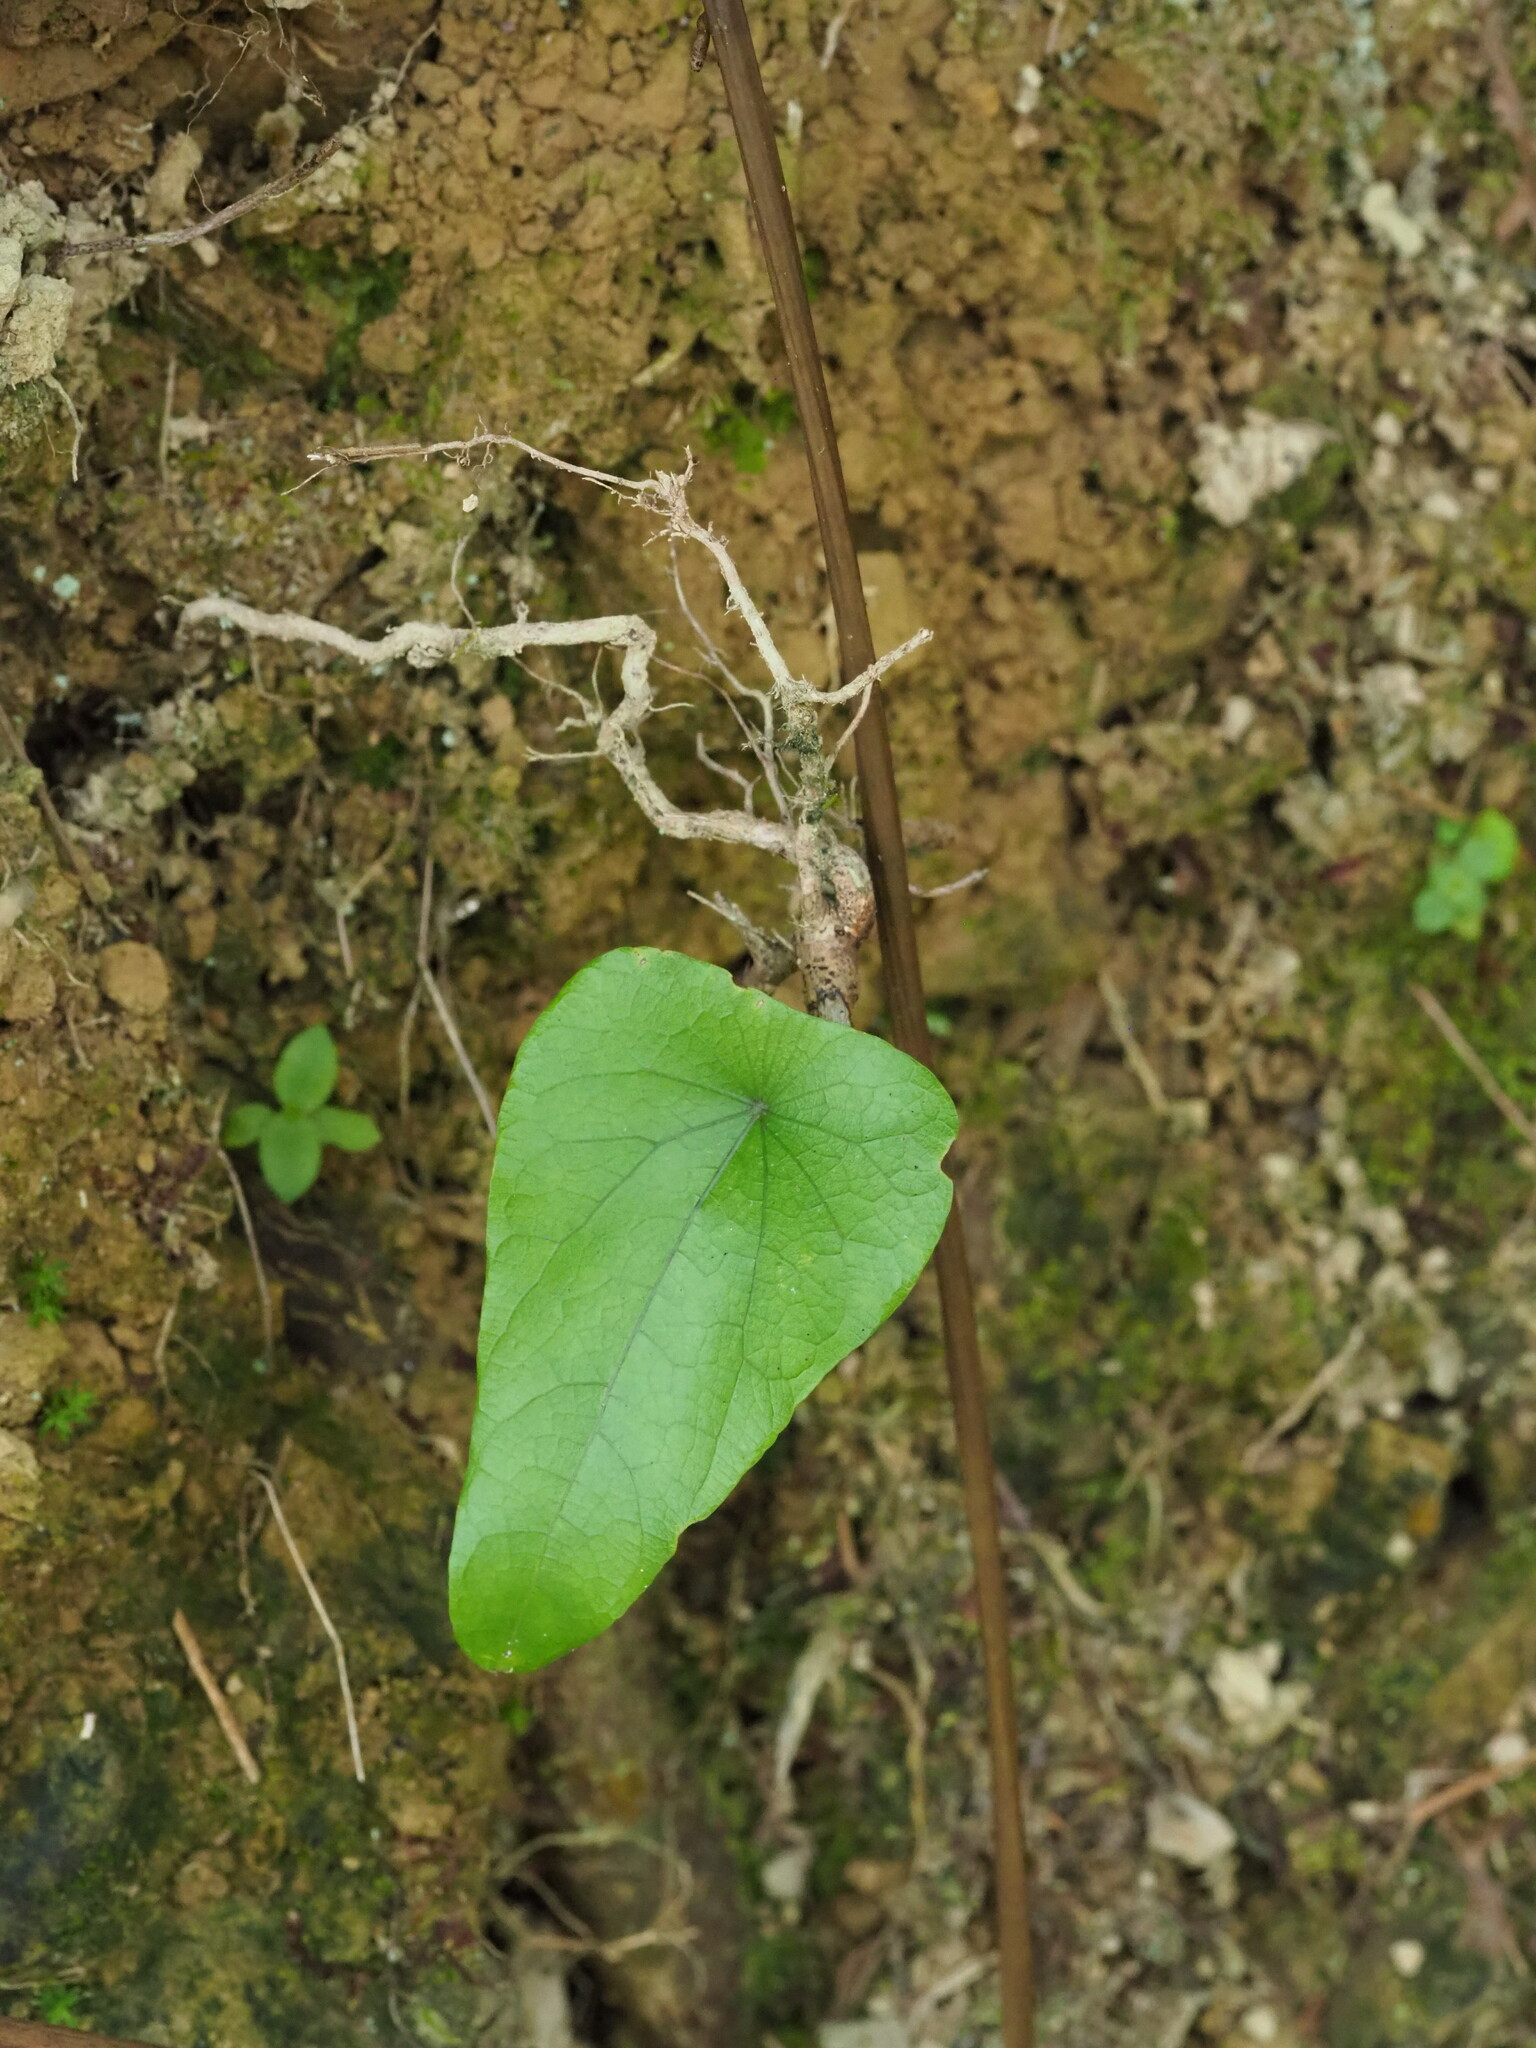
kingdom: Plantae
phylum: Tracheophyta
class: Magnoliopsida
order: Ranunculales
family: Menispermaceae
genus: Stephania
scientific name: Stephania longa
